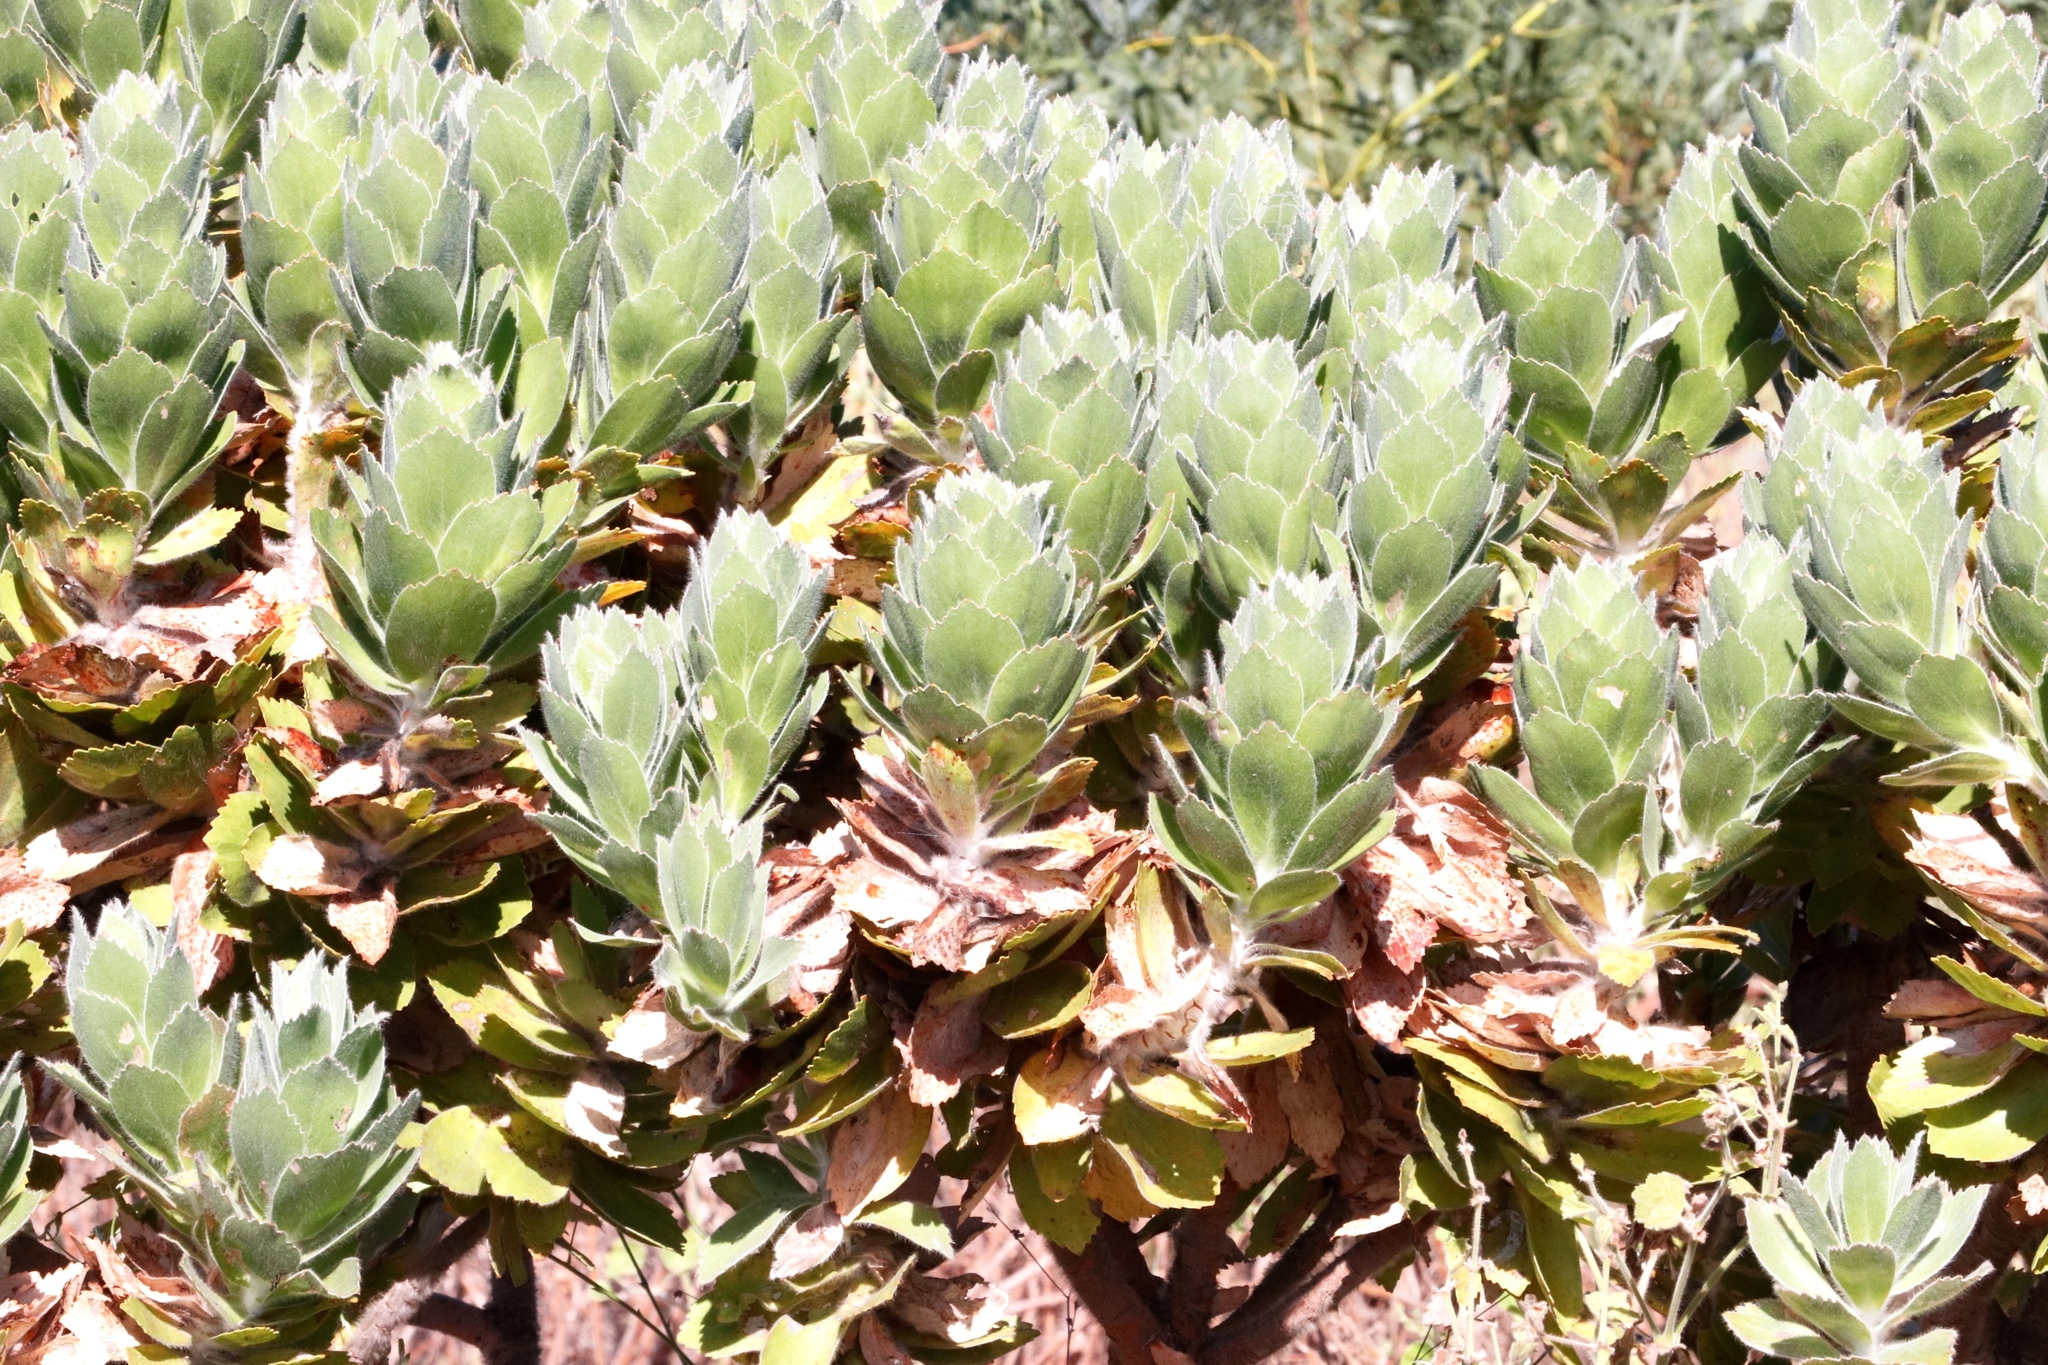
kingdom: Plantae
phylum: Tracheophyta
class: Magnoliopsida
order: Proteales
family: Proteaceae
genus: Leucospermum
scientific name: Leucospermum conocarpodendron
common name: Tree pincushion
